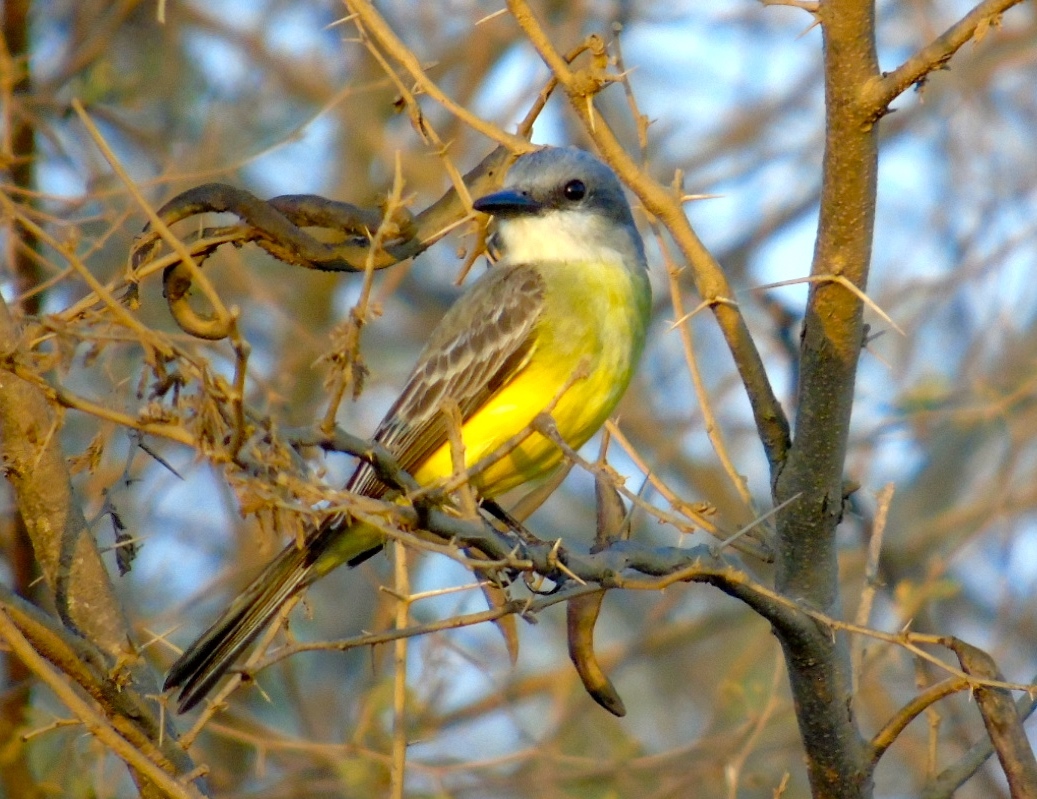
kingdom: Animalia
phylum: Chordata
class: Aves
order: Passeriformes
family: Tyrannidae
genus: Tyrannus
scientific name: Tyrannus melancholicus
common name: Tropical kingbird
